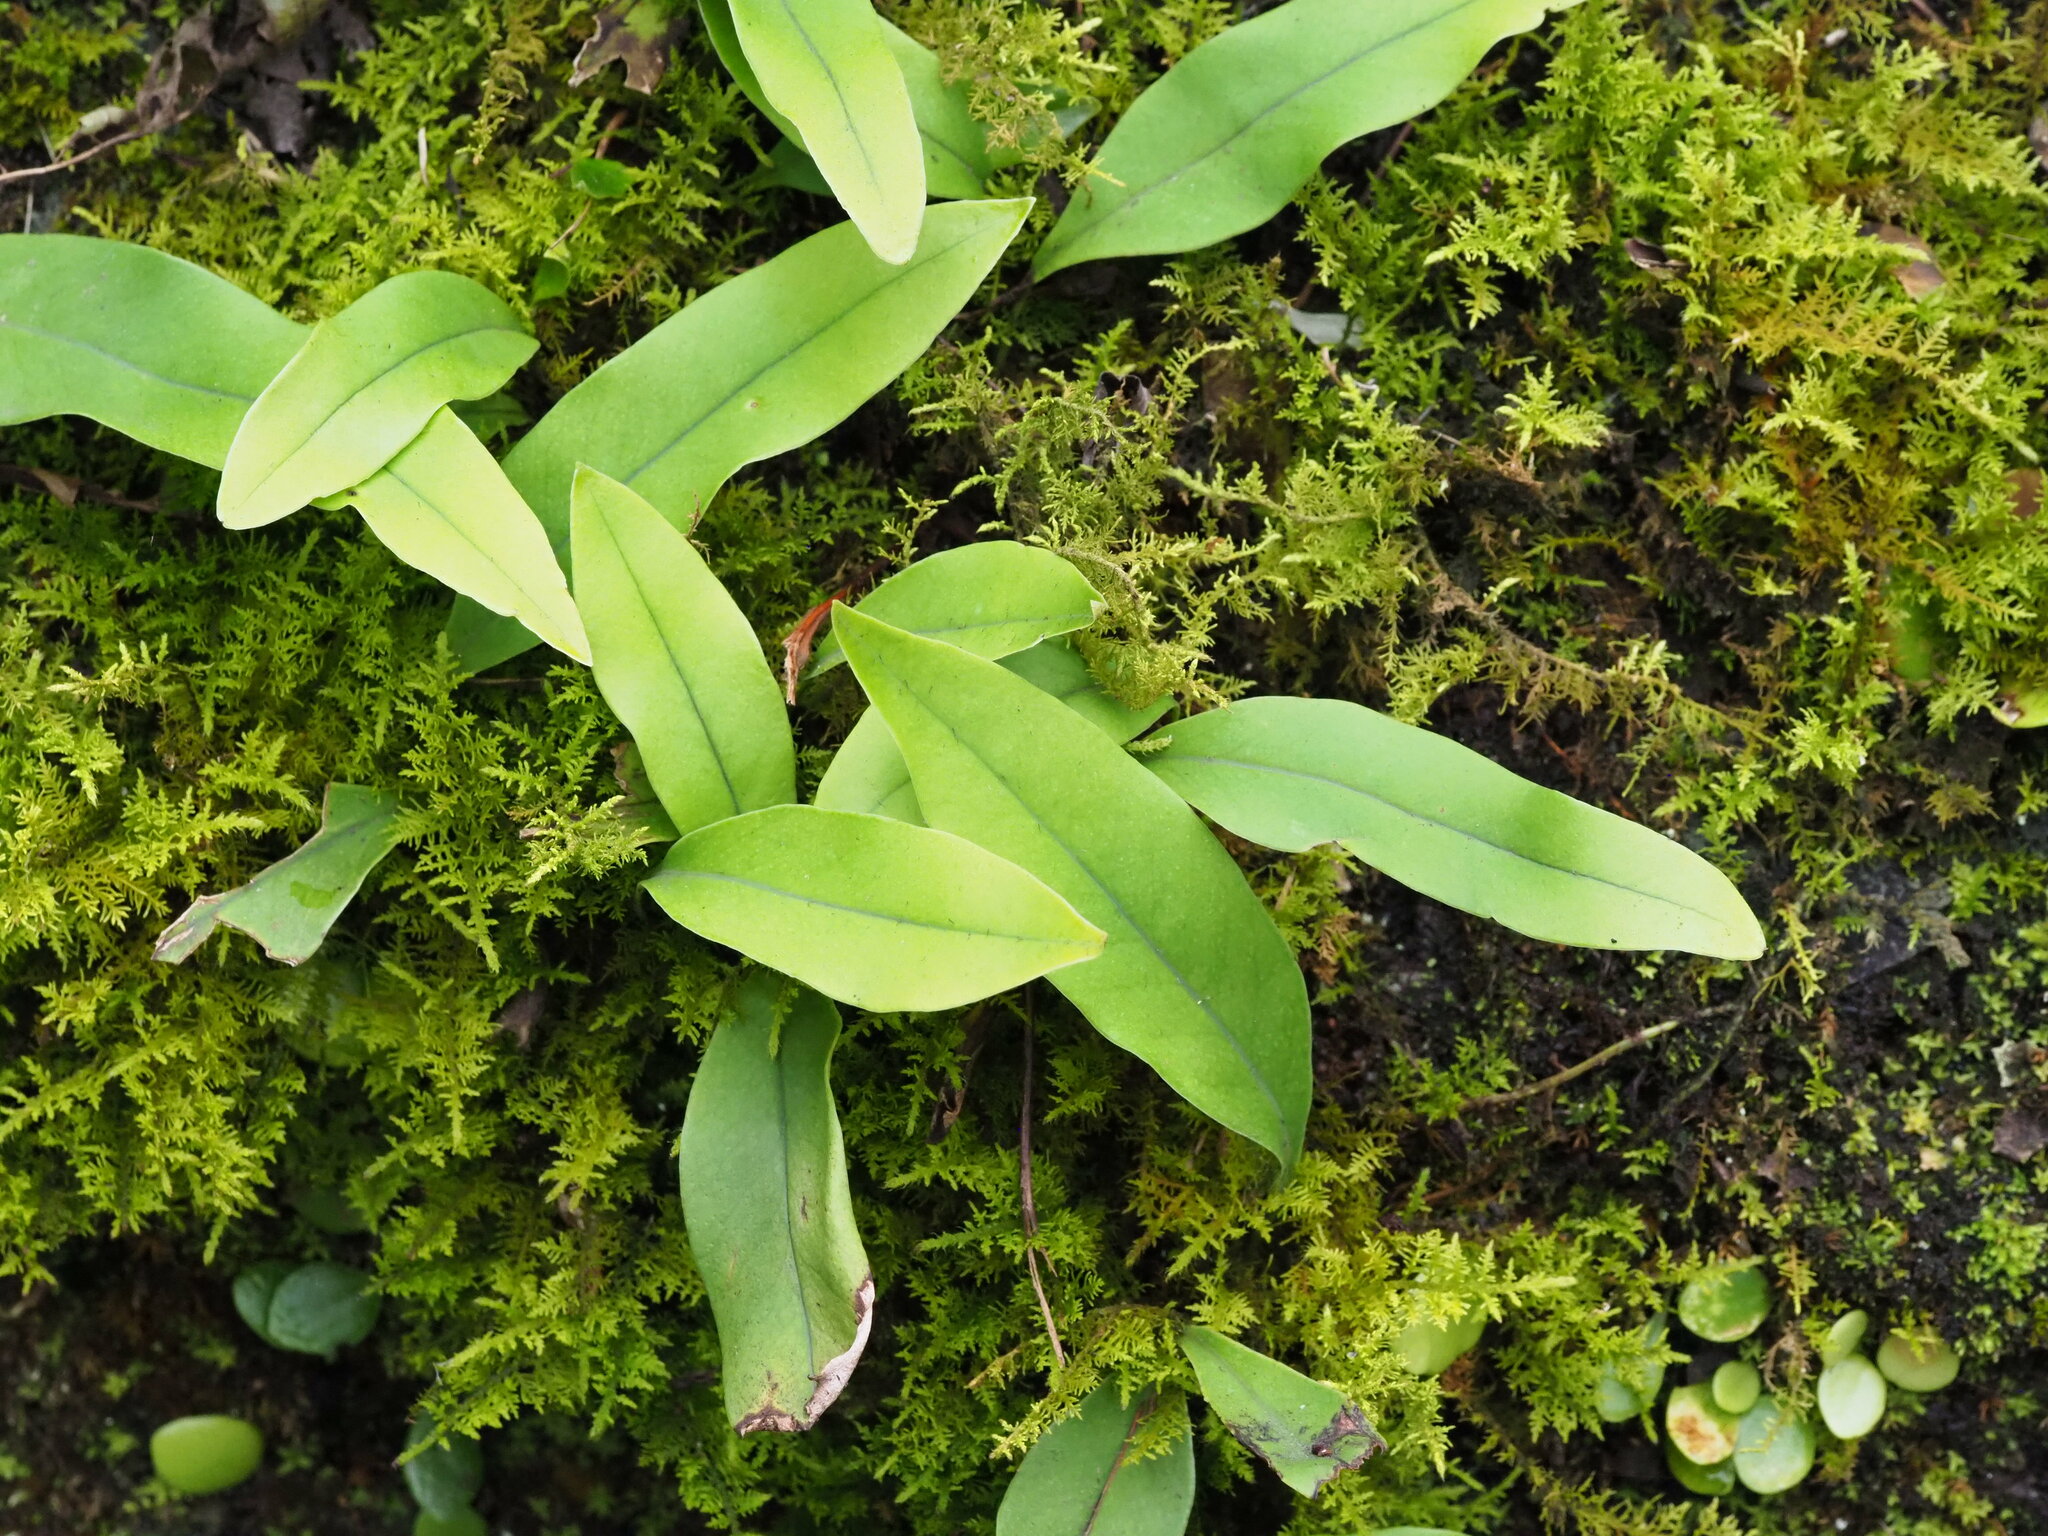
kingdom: Plantae
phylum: Tracheophyta
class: Polypodiopsida
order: Polypodiales
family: Polypodiaceae
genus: Pyrrosia
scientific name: Pyrrosia lingua
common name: Felt fern
